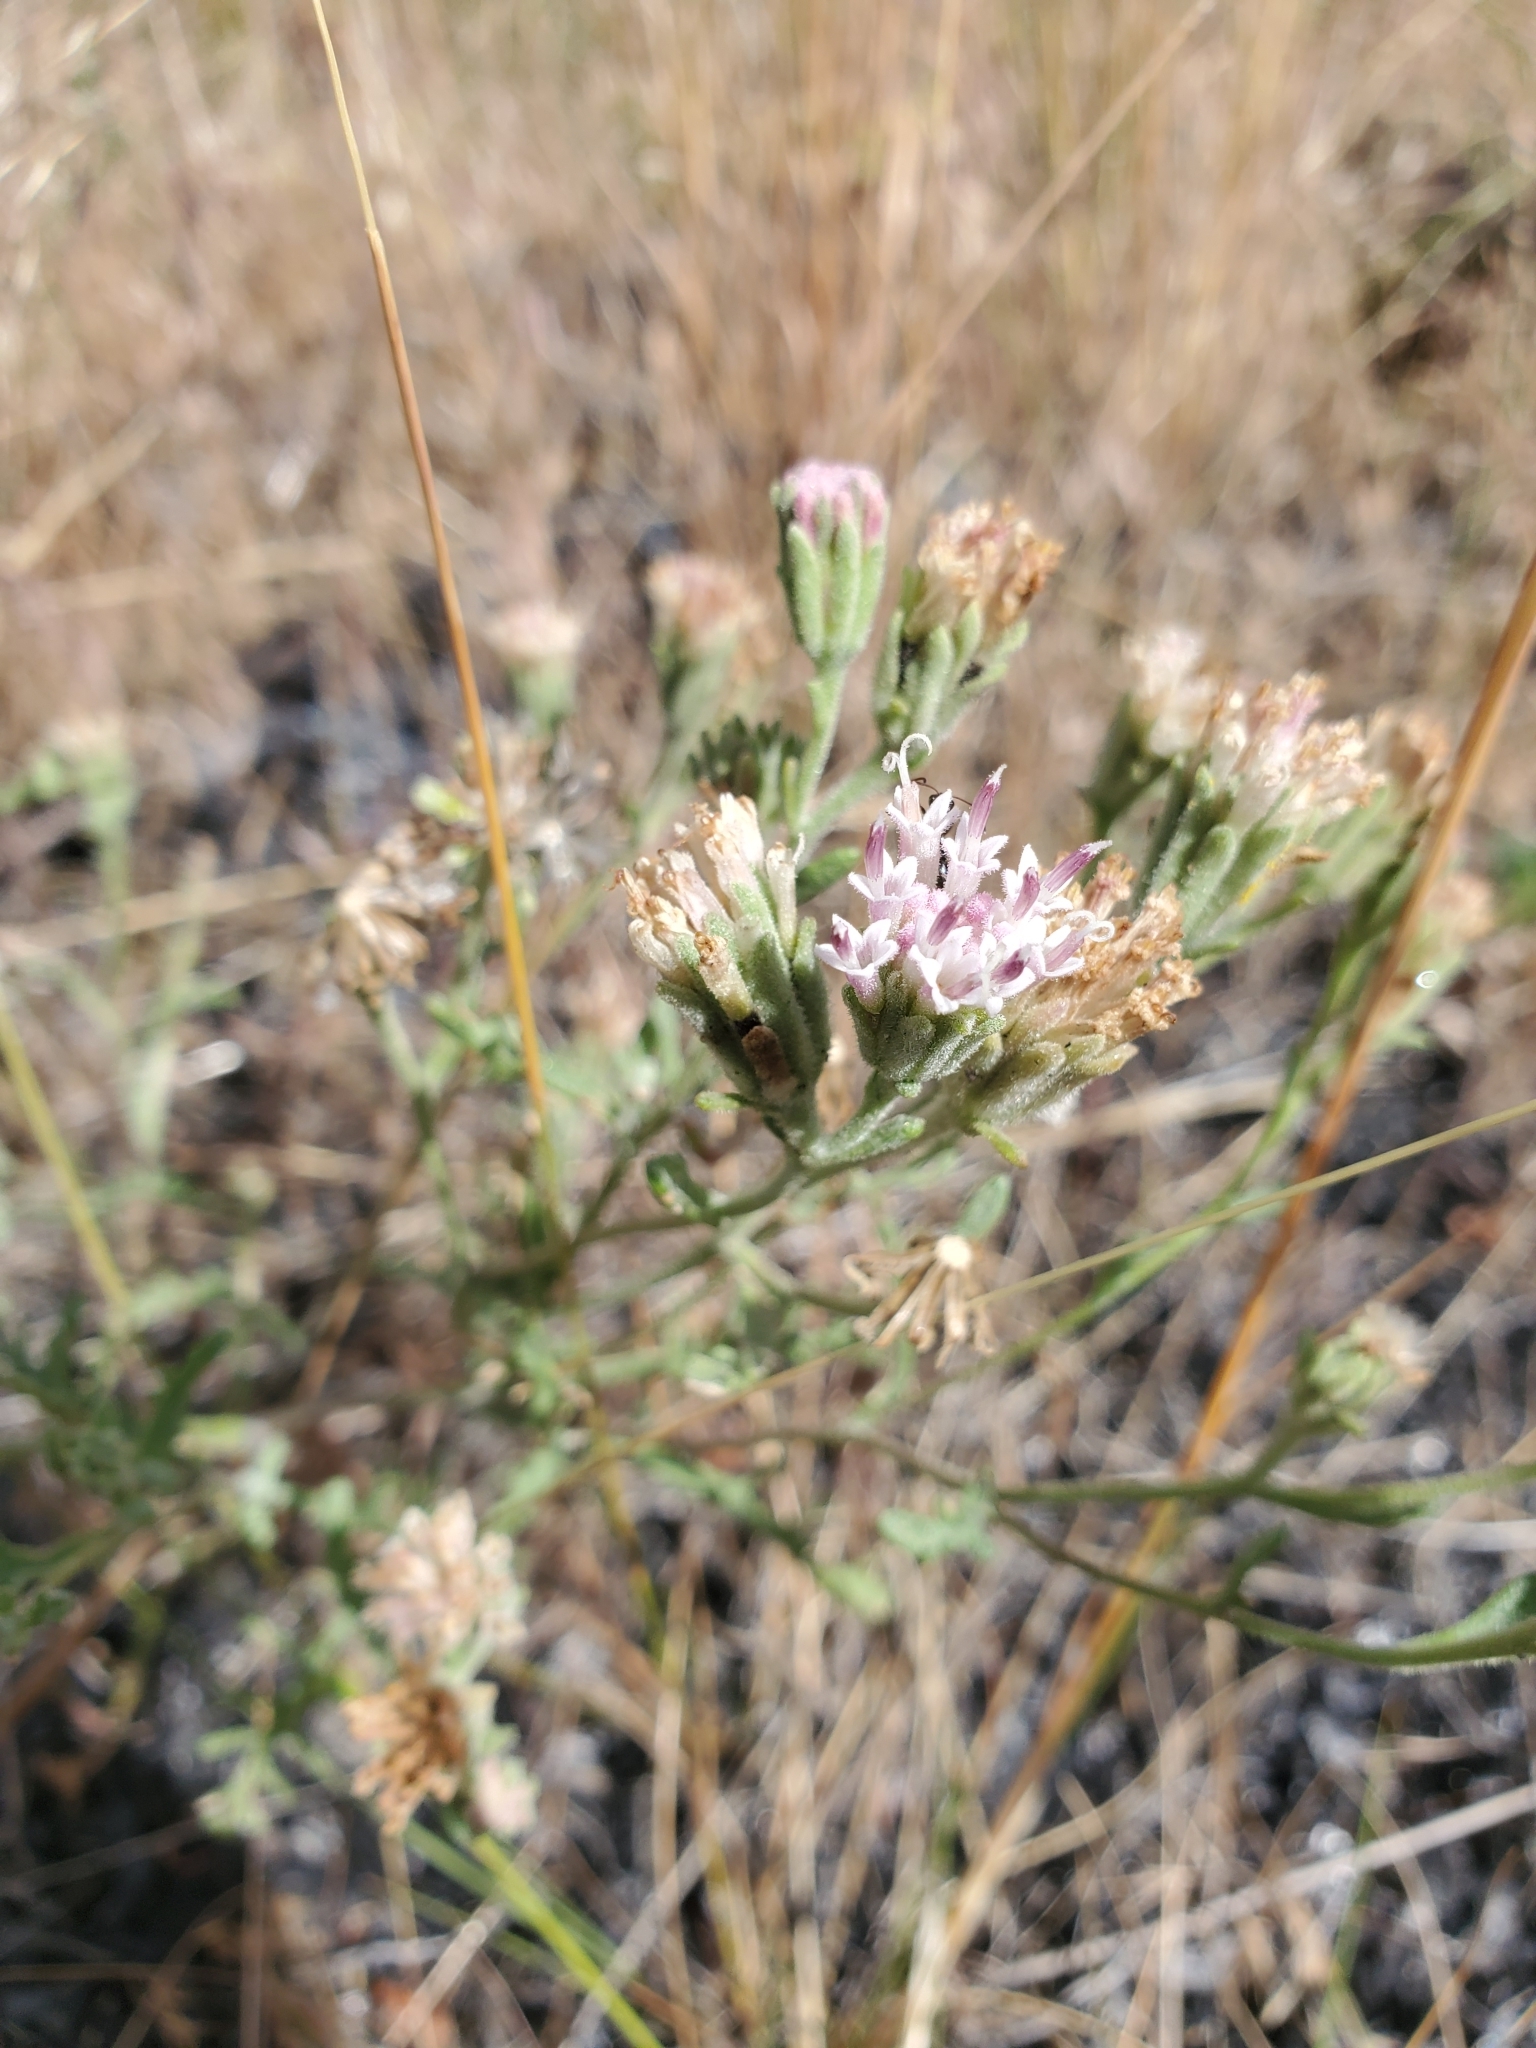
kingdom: Plantae
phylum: Tracheophyta
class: Magnoliopsida
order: Asterales
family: Asteraceae
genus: Chaenactis
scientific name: Chaenactis douglasii
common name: Hoary pincushion
